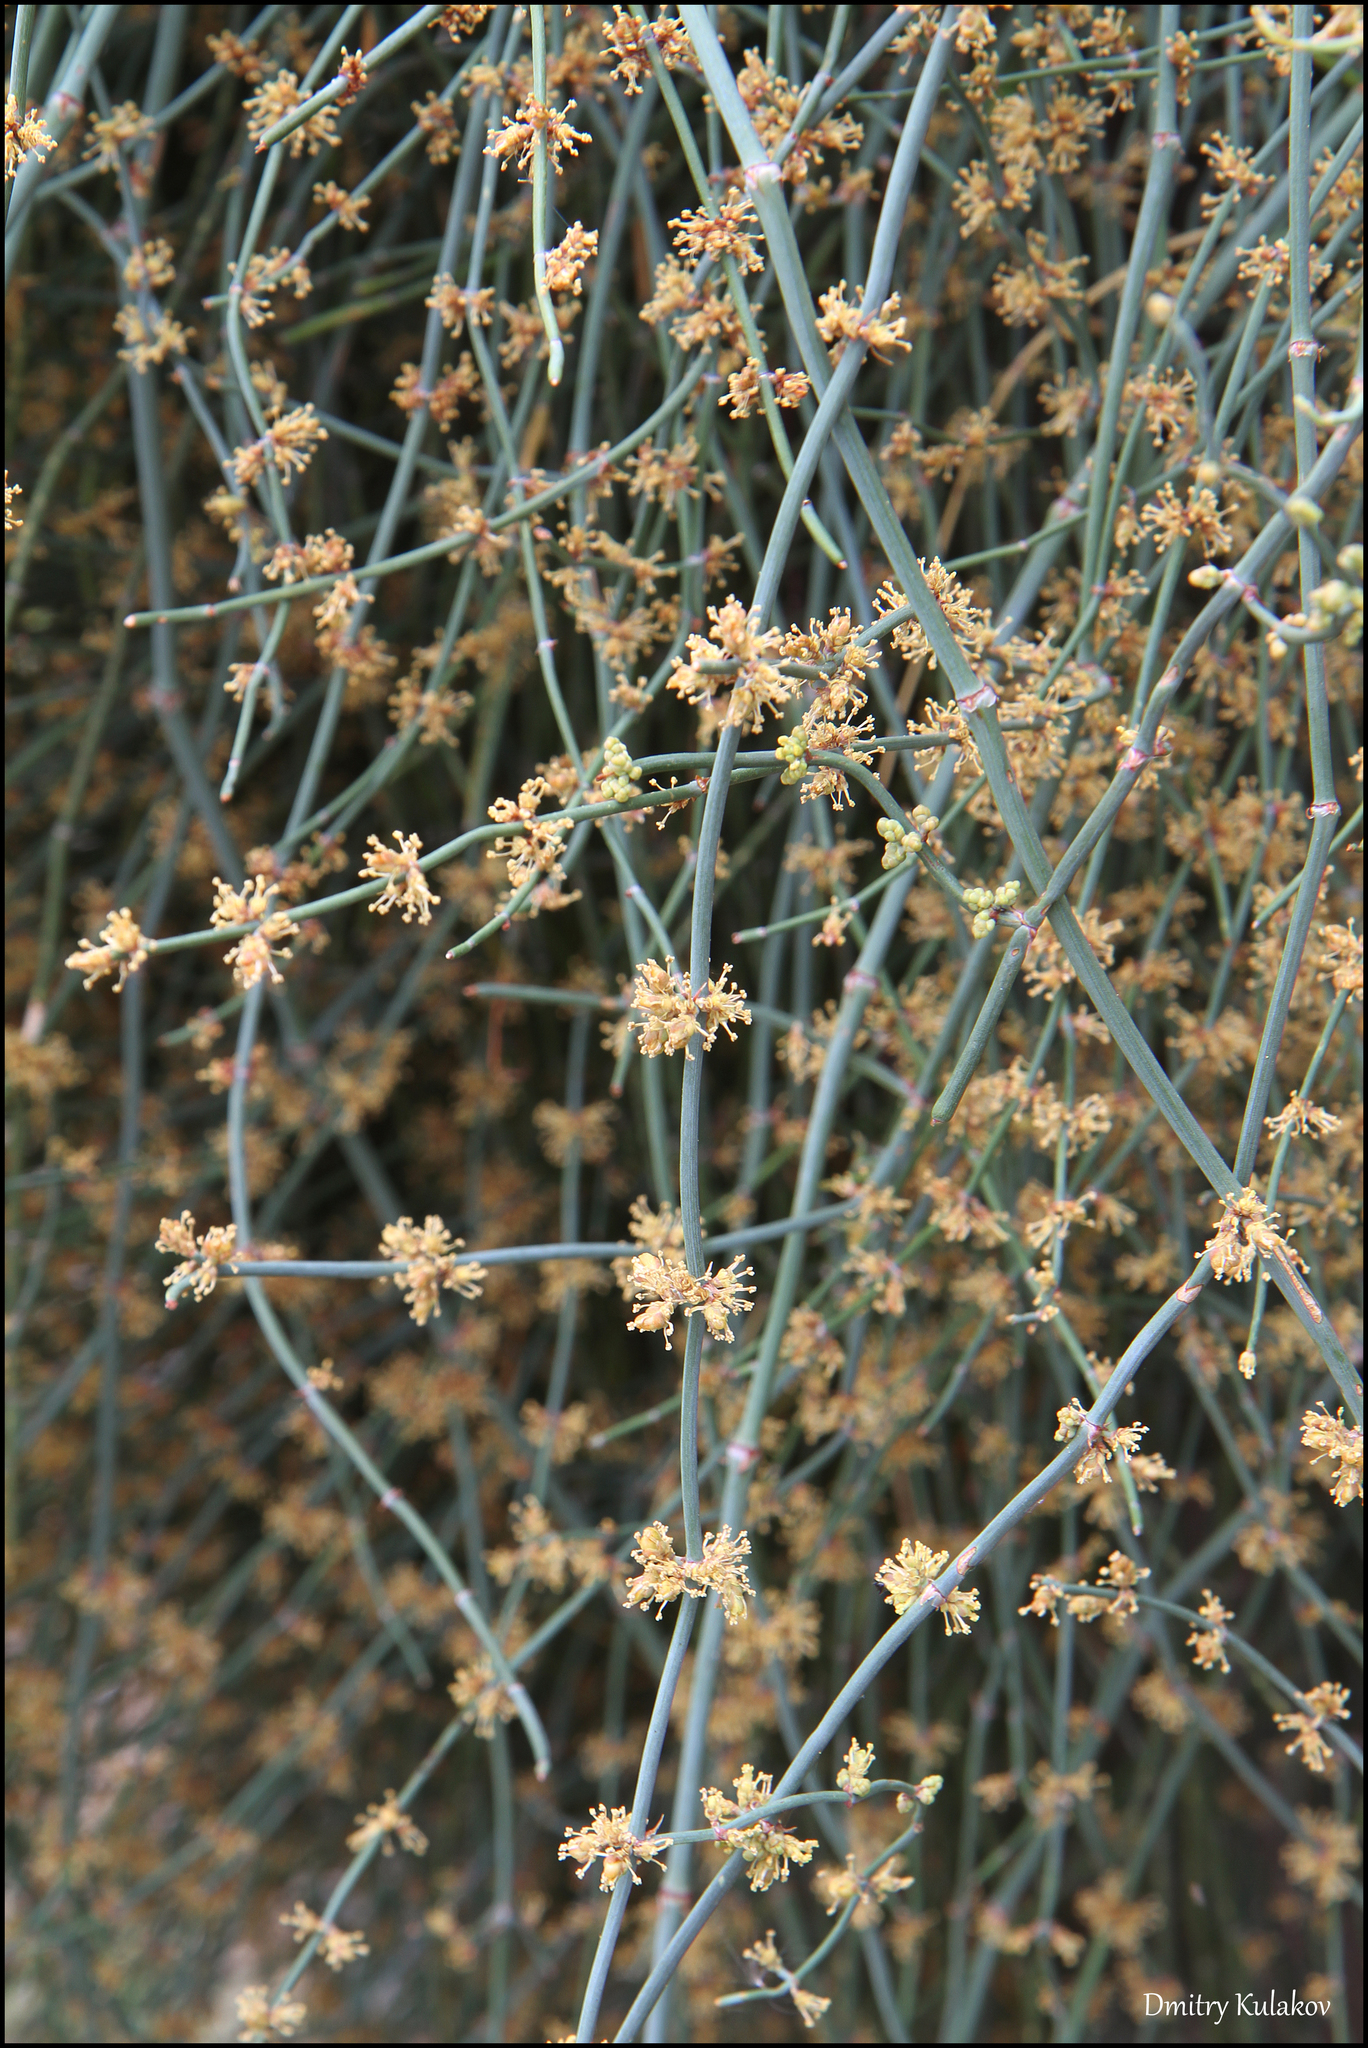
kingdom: Plantae
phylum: Tracheophyta
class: Gnetopsida
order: Ephedrales
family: Ephedraceae
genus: Ephedra
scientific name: Ephedra foeminea
